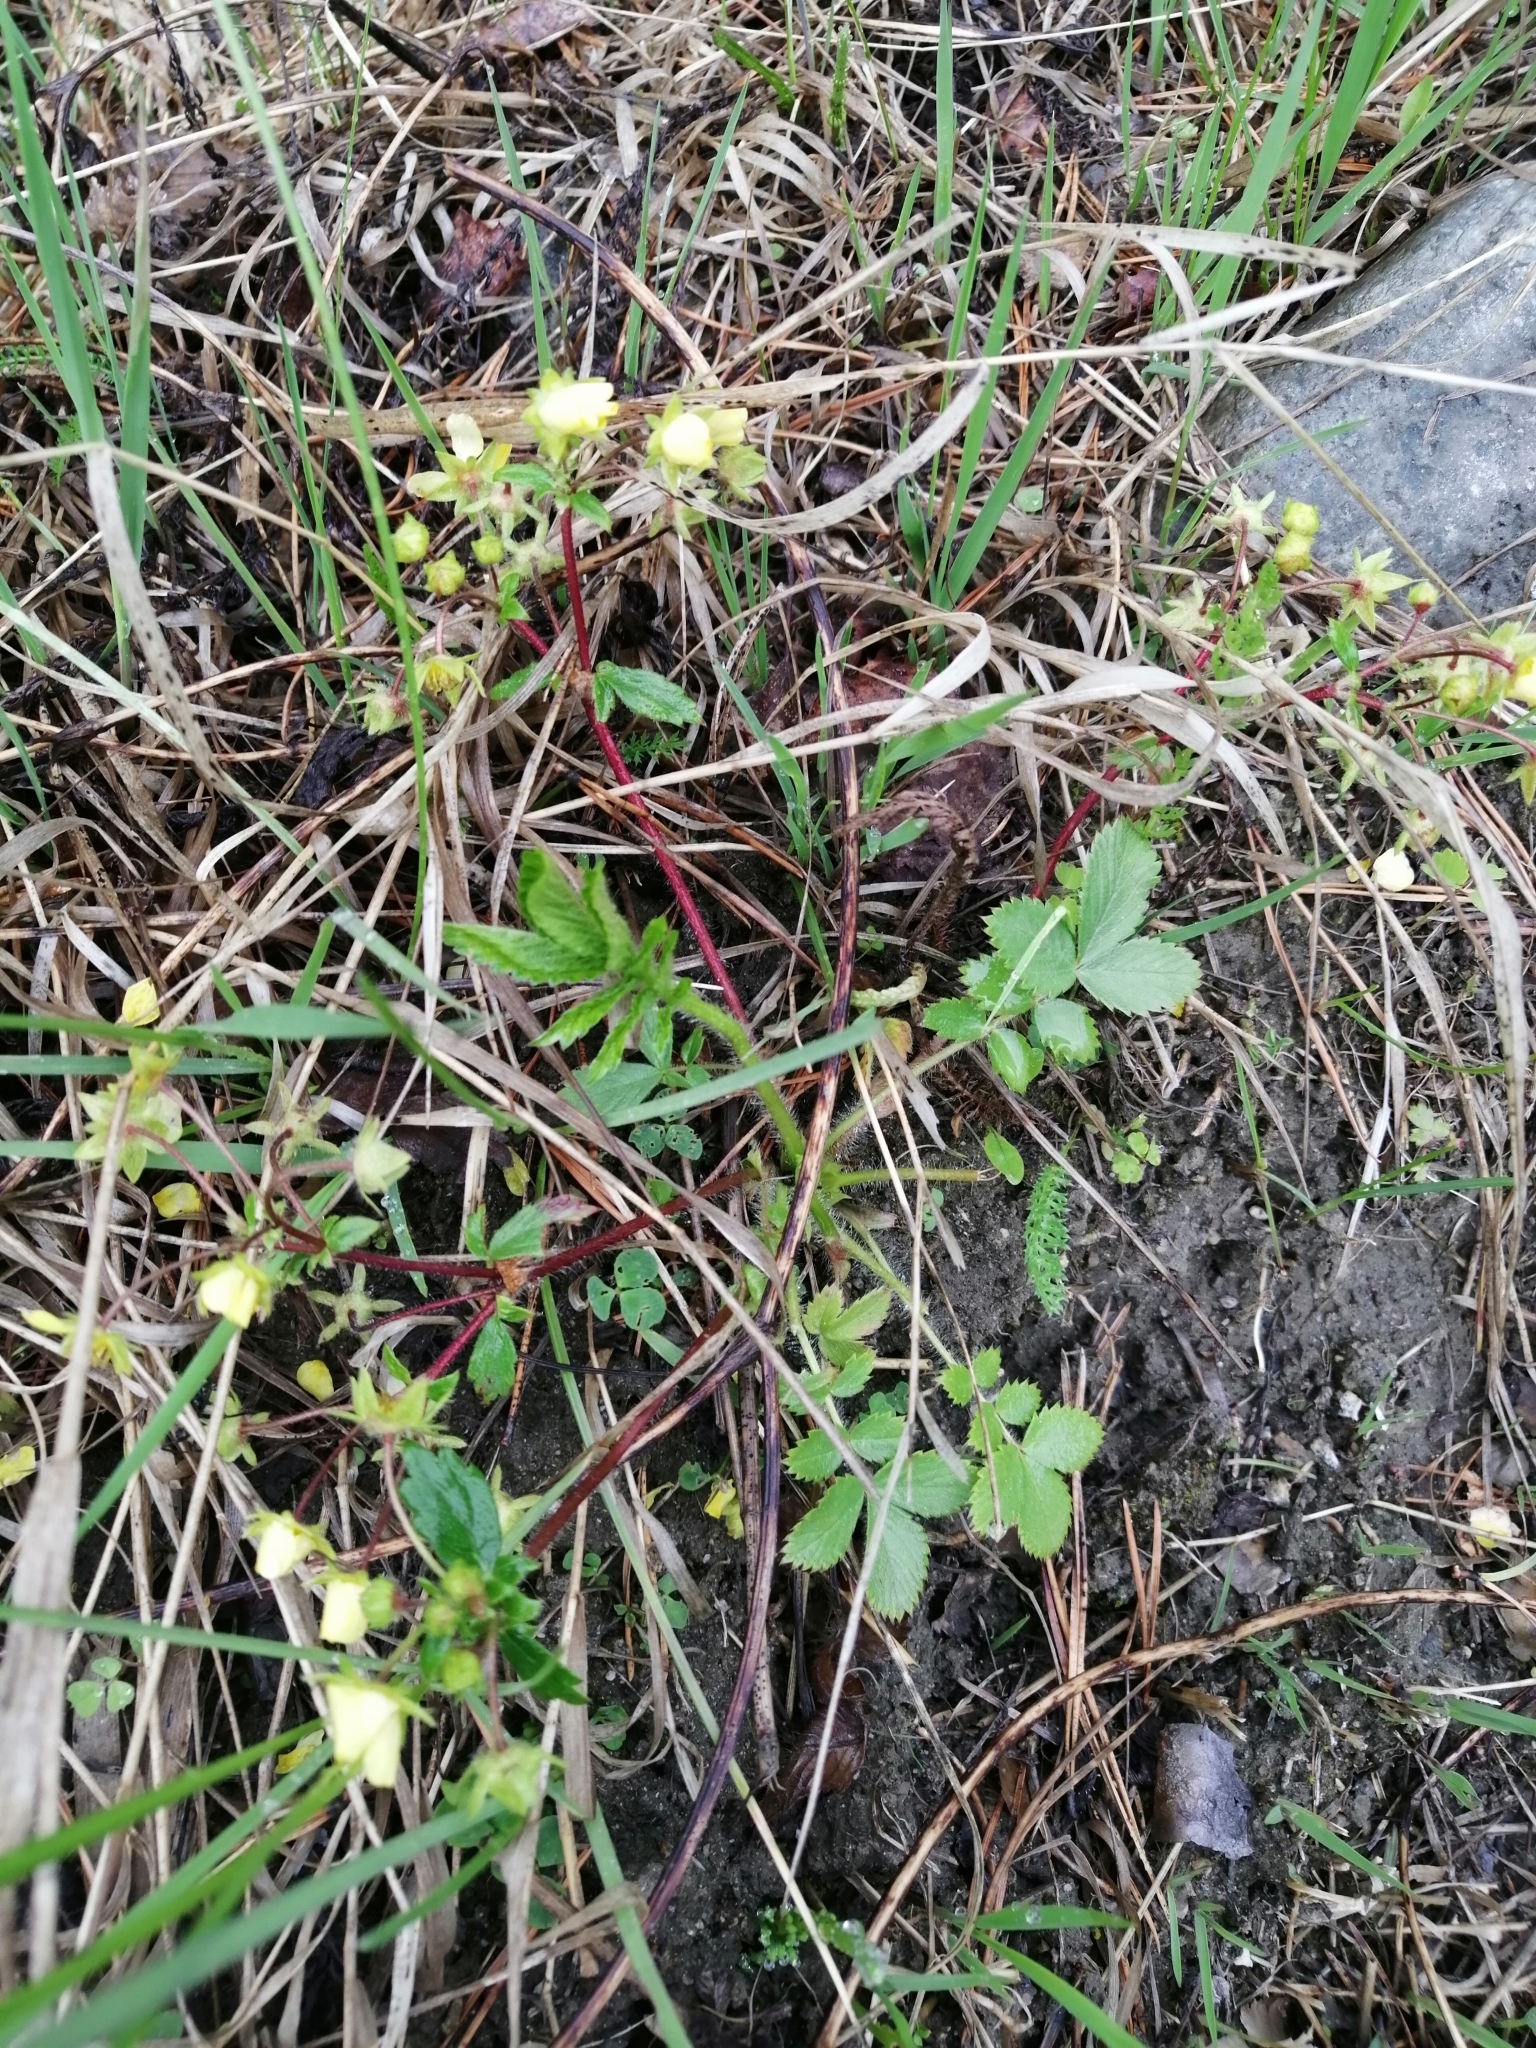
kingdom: Plantae
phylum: Tracheophyta
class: Magnoliopsida
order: Rosales
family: Rosaceae
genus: Potentilla
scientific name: Potentilla fragarioides
